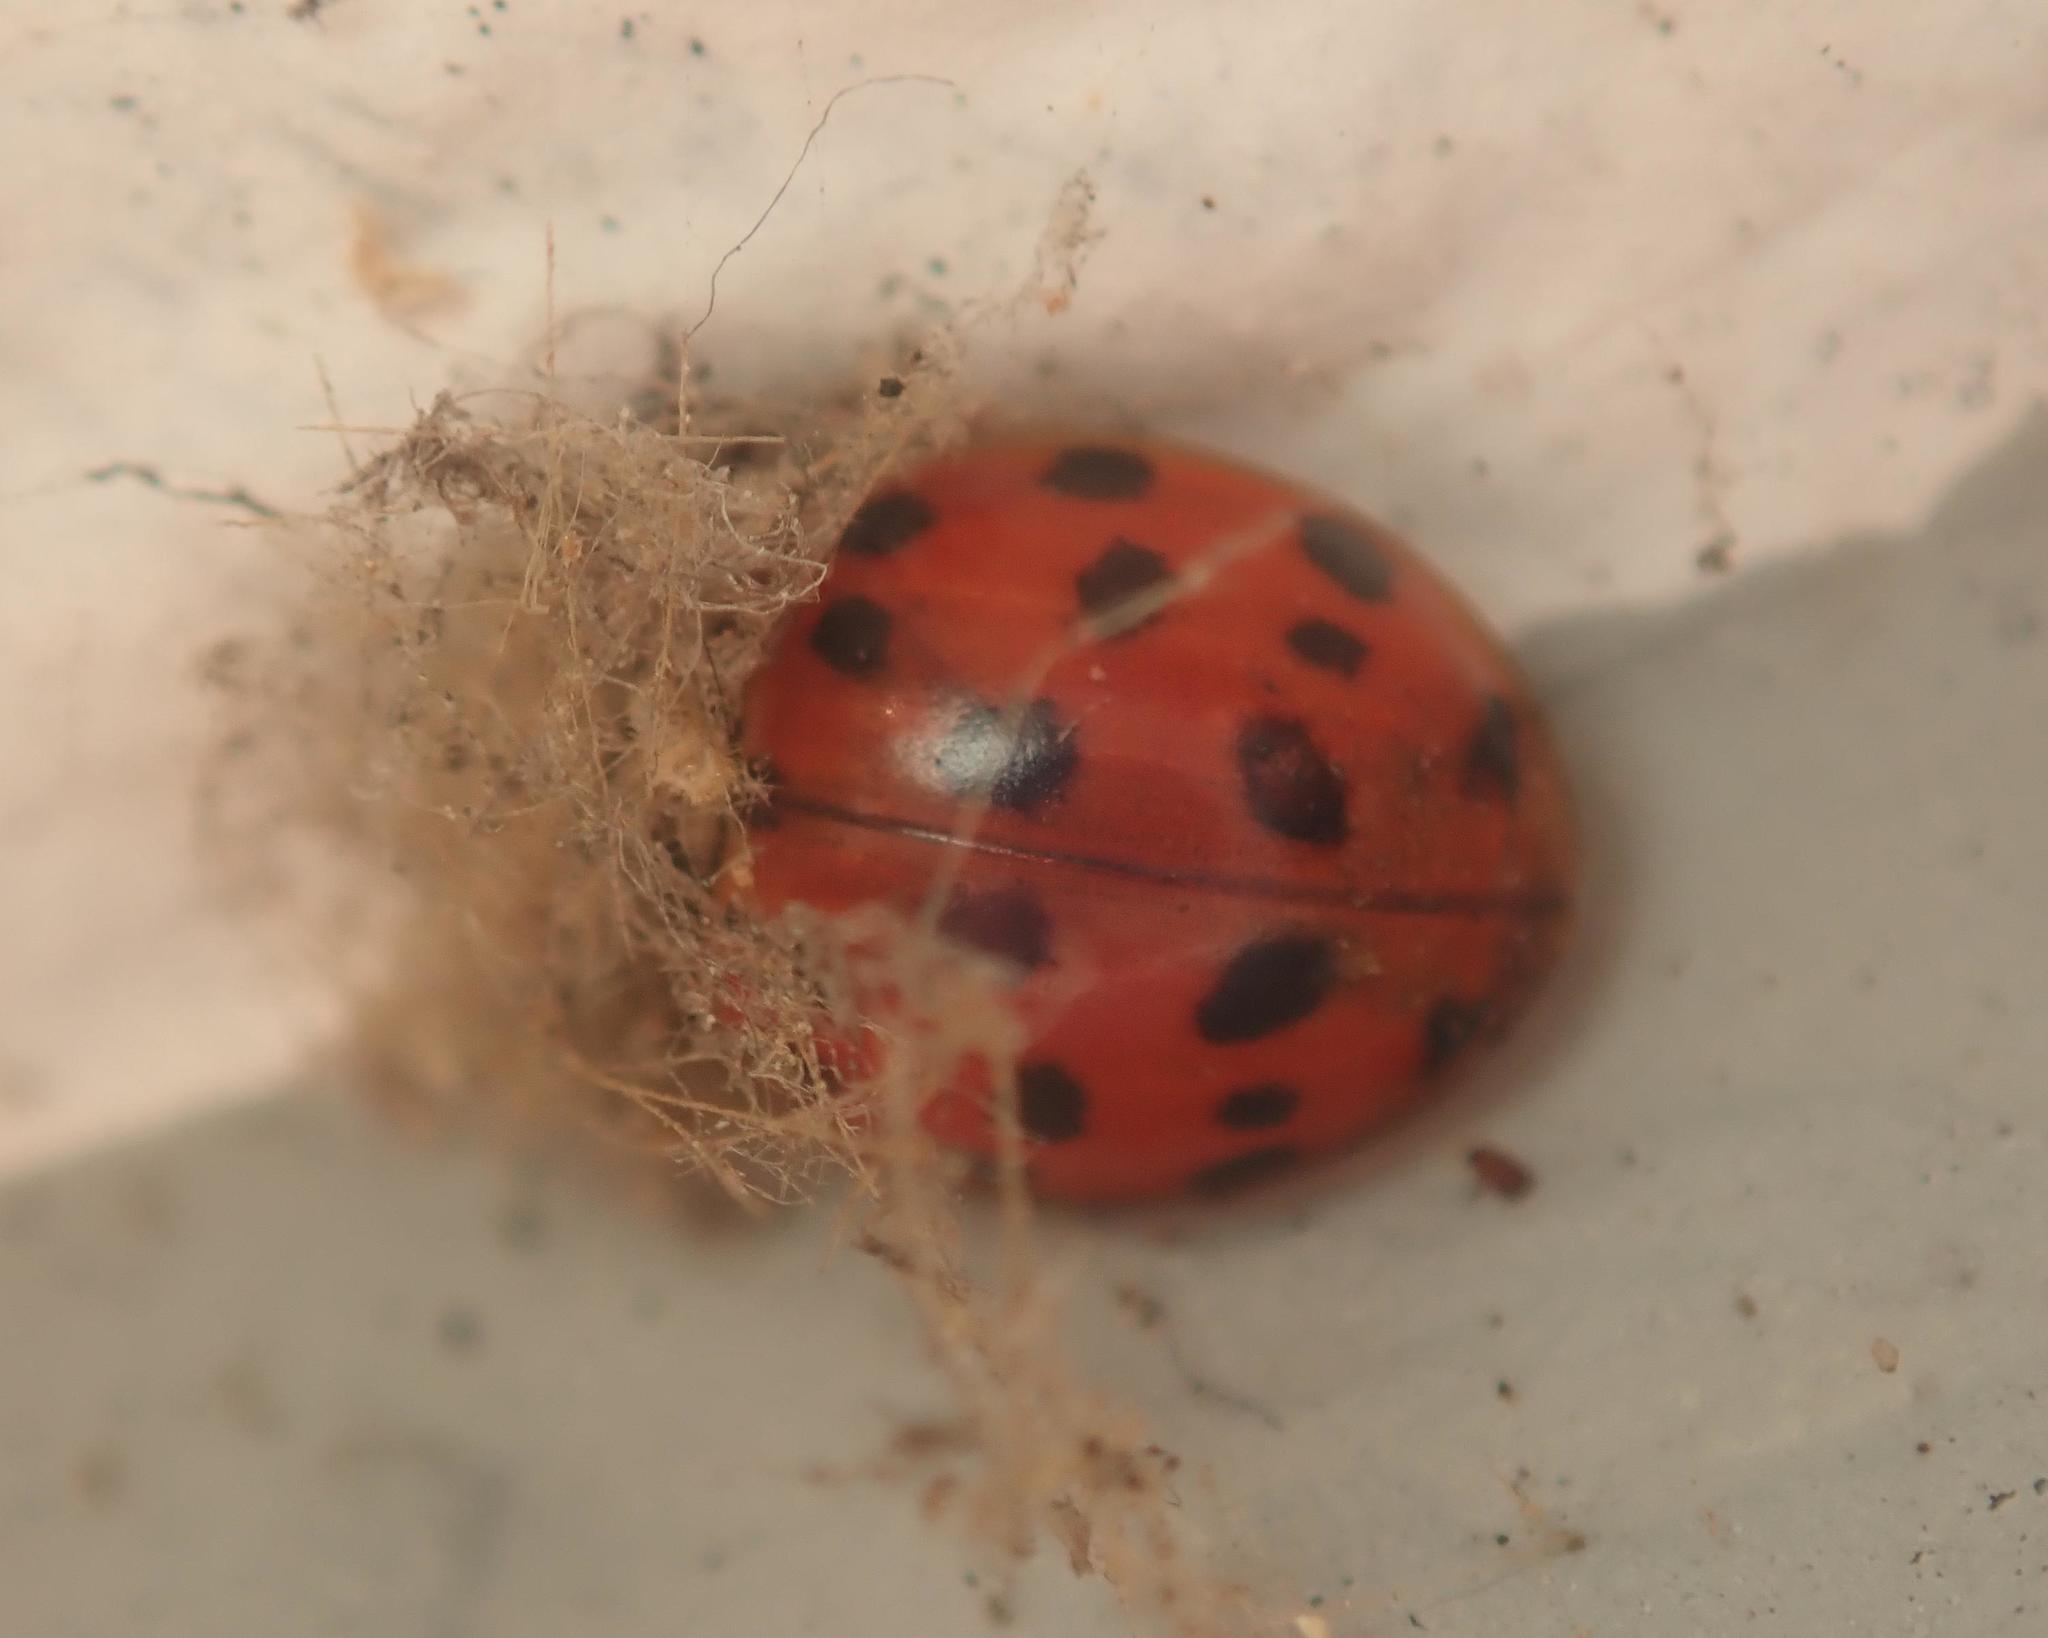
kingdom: Animalia
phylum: Arthropoda
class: Insecta
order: Coleoptera
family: Coccinellidae
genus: Harmonia
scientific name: Harmonia axyridis
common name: Harlequin ladybird
